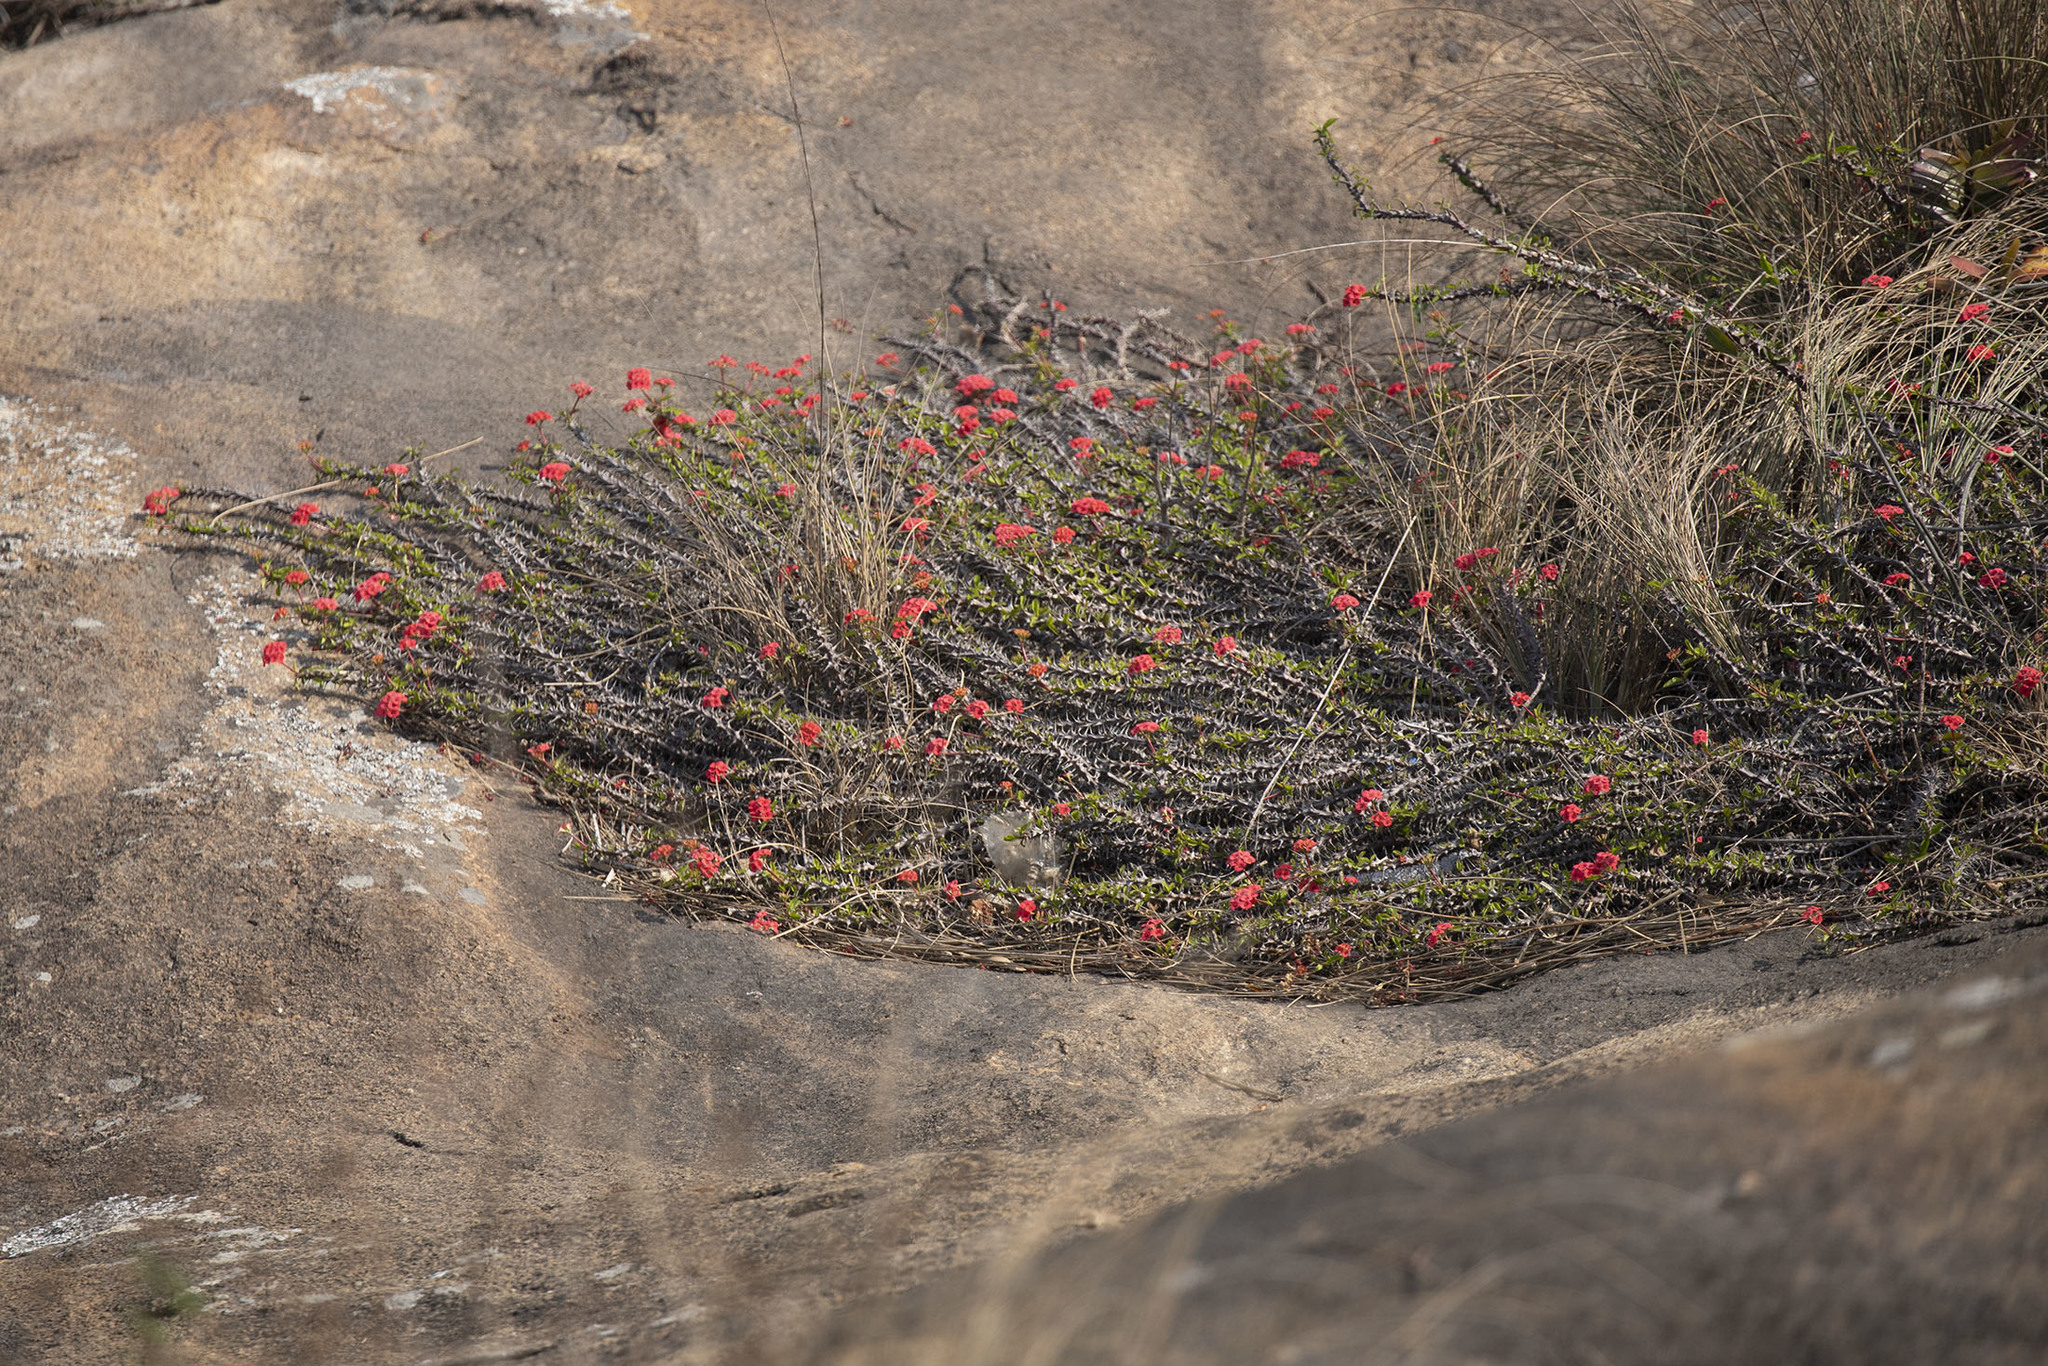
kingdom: Plantae
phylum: Tracheophyta
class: Magnoliopsida
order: Malpighiales
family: Euphorbiaceae
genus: Euphorbia
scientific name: Euphorbia milii
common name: Christplant
